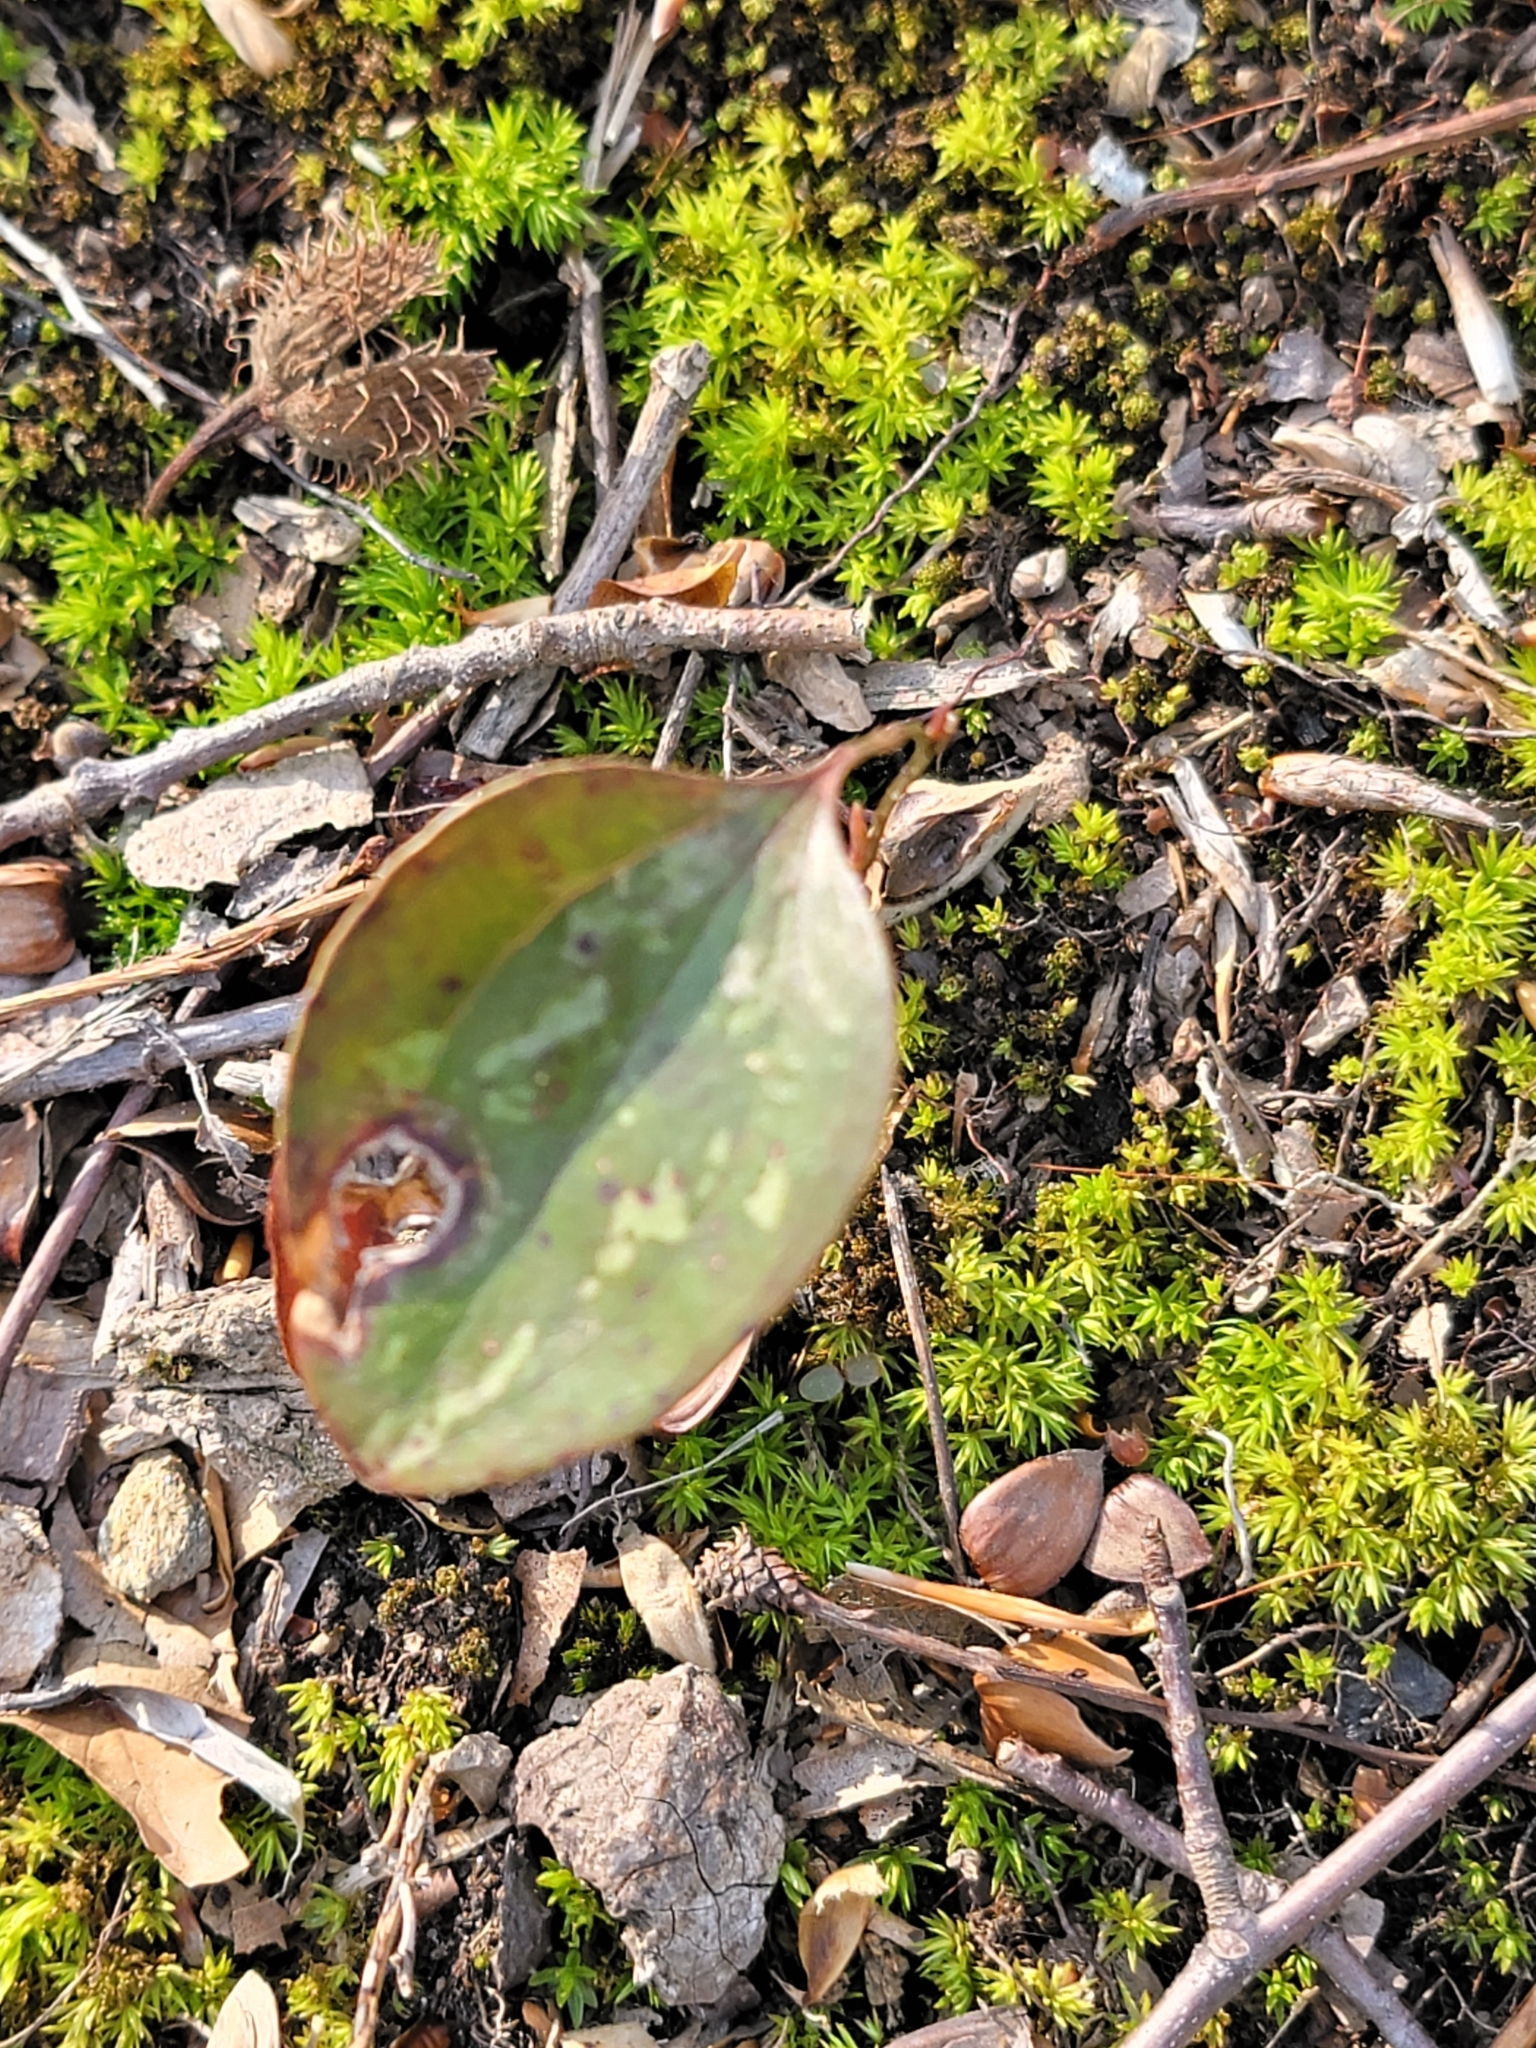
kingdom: Plantae
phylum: Tracheophyta
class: Liliopsida
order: Liliales
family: Smilacaceae
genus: Smilax
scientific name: Smilax glauca
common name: Cat greenbrier
